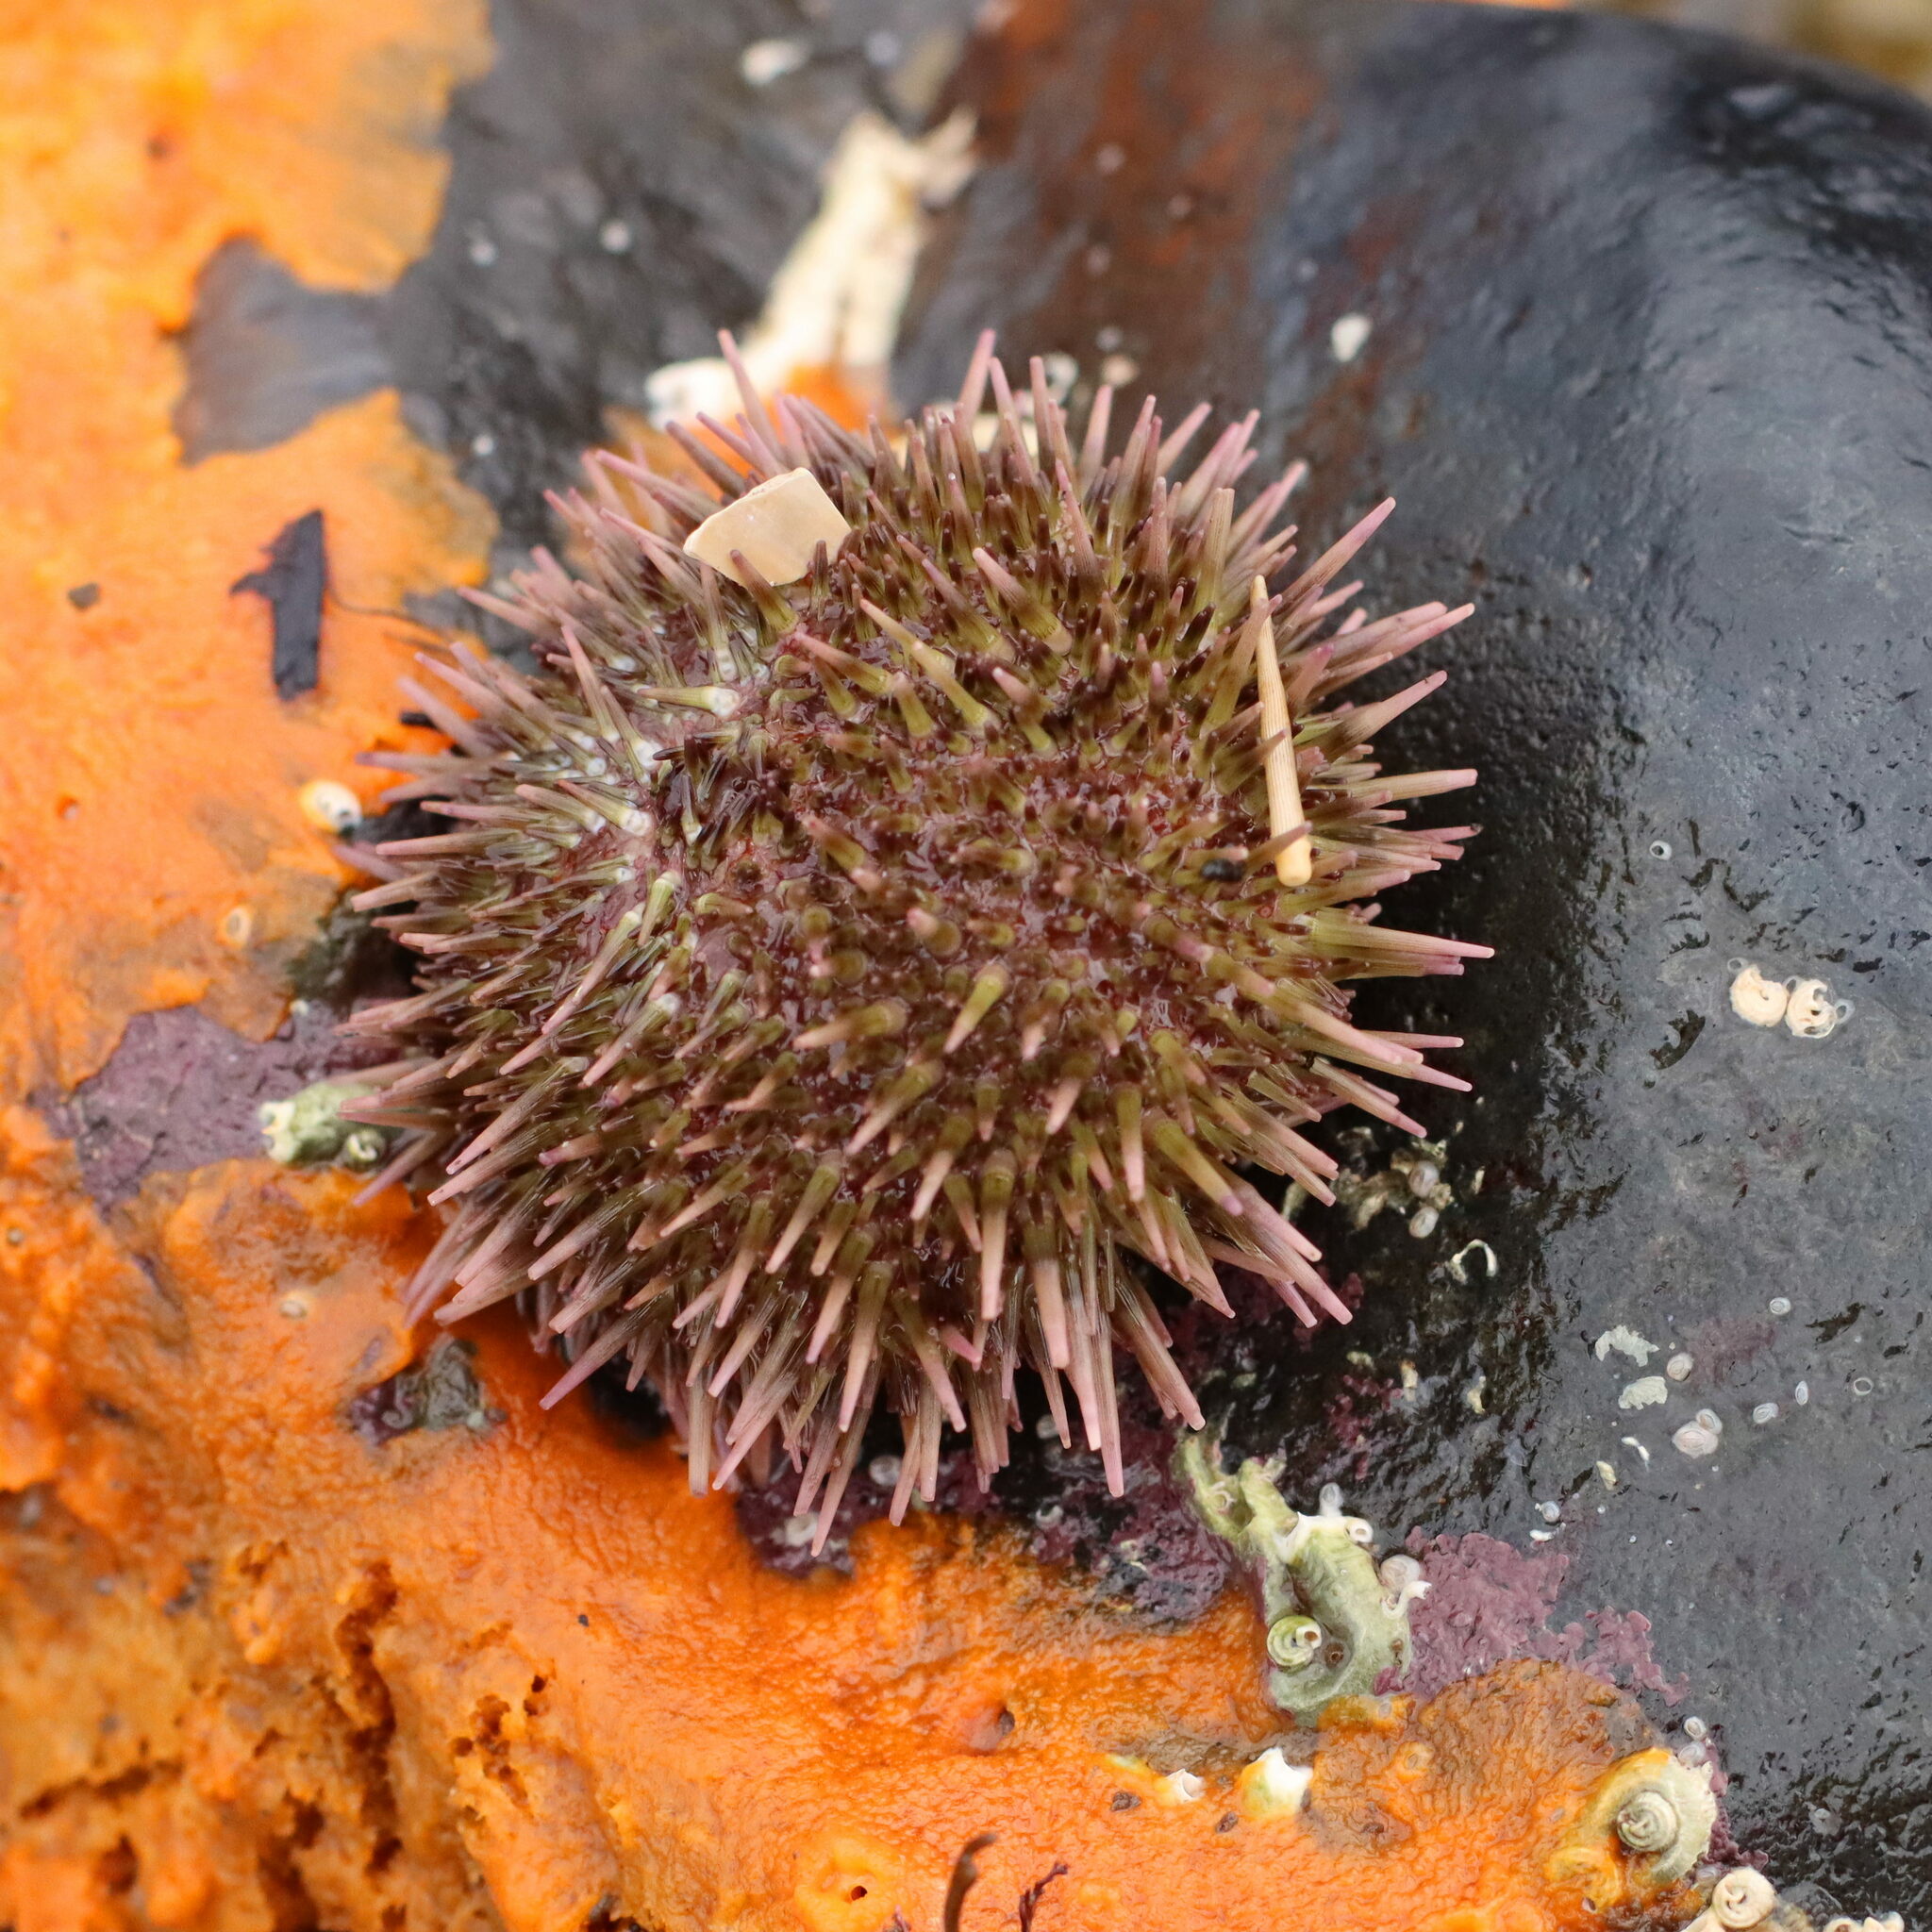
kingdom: Animalia
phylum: Echinodermata
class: Echinoidea
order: Camarodonta
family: Parechinidae
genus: Psammechinus
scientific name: Psammechinus miliaris
